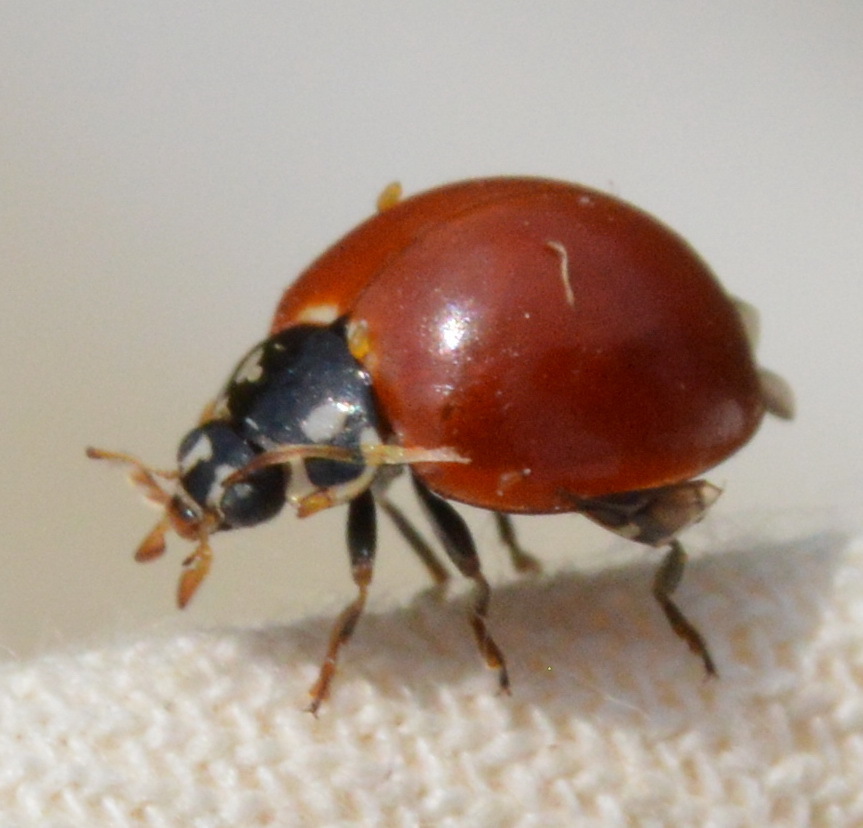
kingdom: Animalia
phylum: Arthropoda
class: Insecta
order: Coleoptera
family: Coccinellidae
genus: Cycloneda
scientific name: Cycloneda sanguinea
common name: Ladybird beetle
